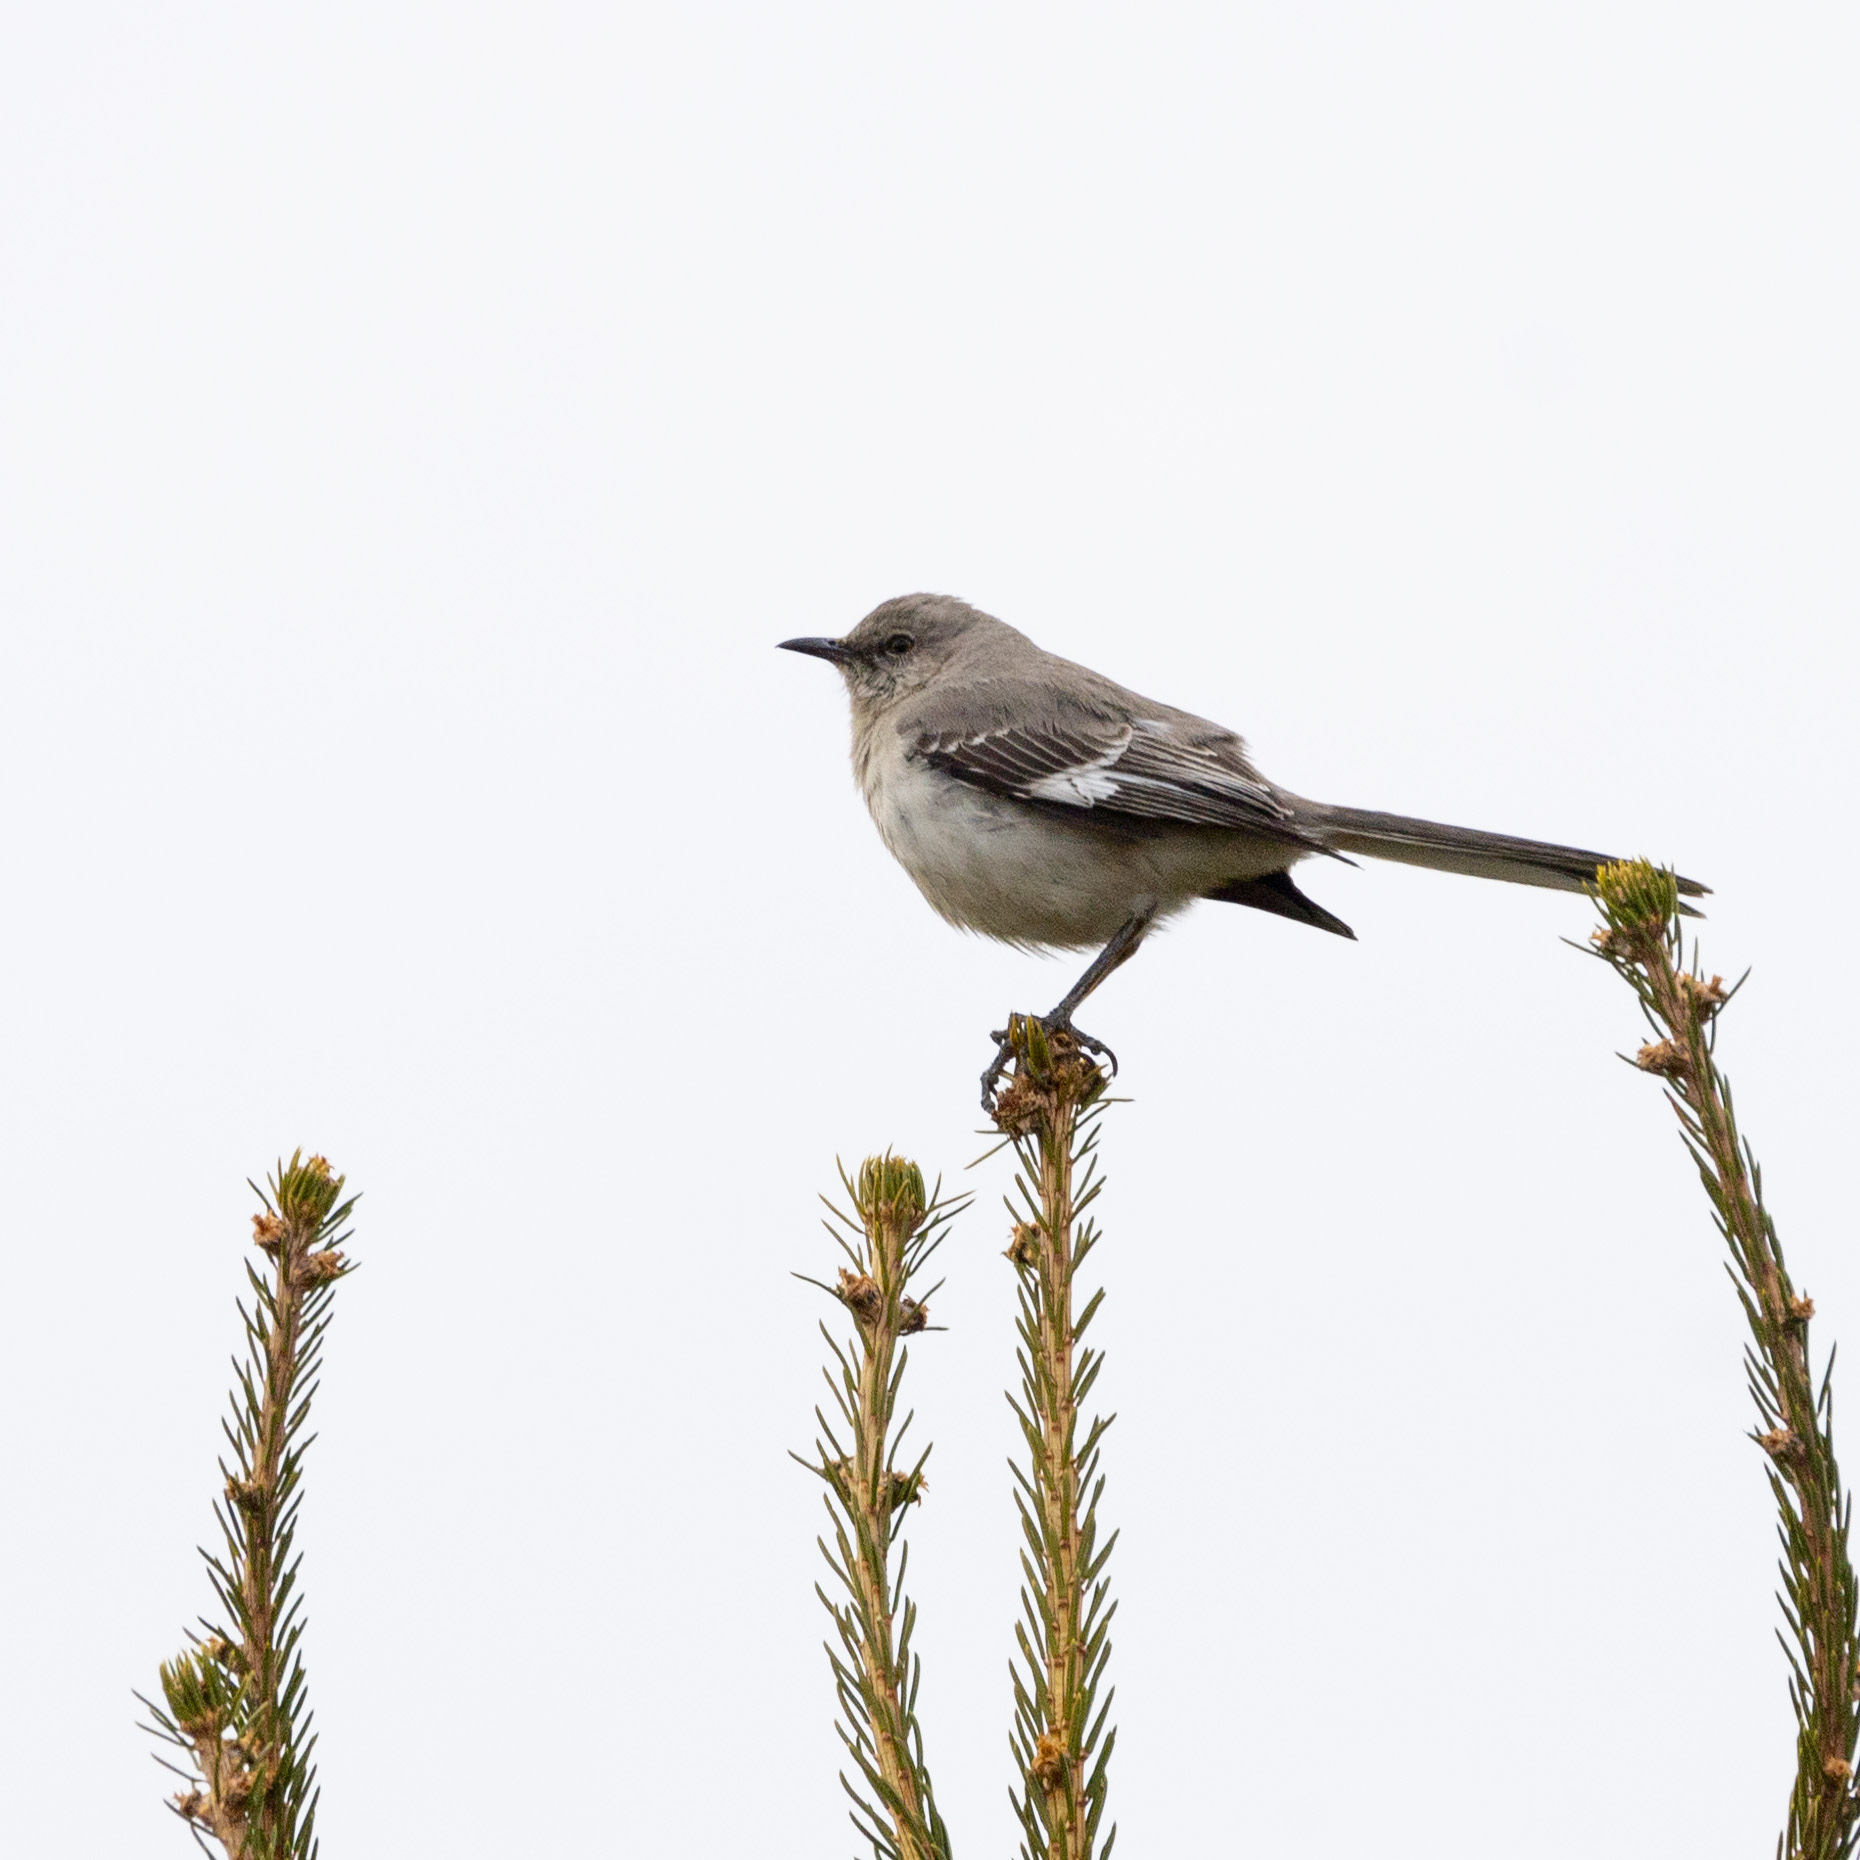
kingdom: Animalia
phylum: Chordata
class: Aves
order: Passeriformes
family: Mimidae
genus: Mimus
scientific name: Mimus polyglottos
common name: Northern mockingbird
